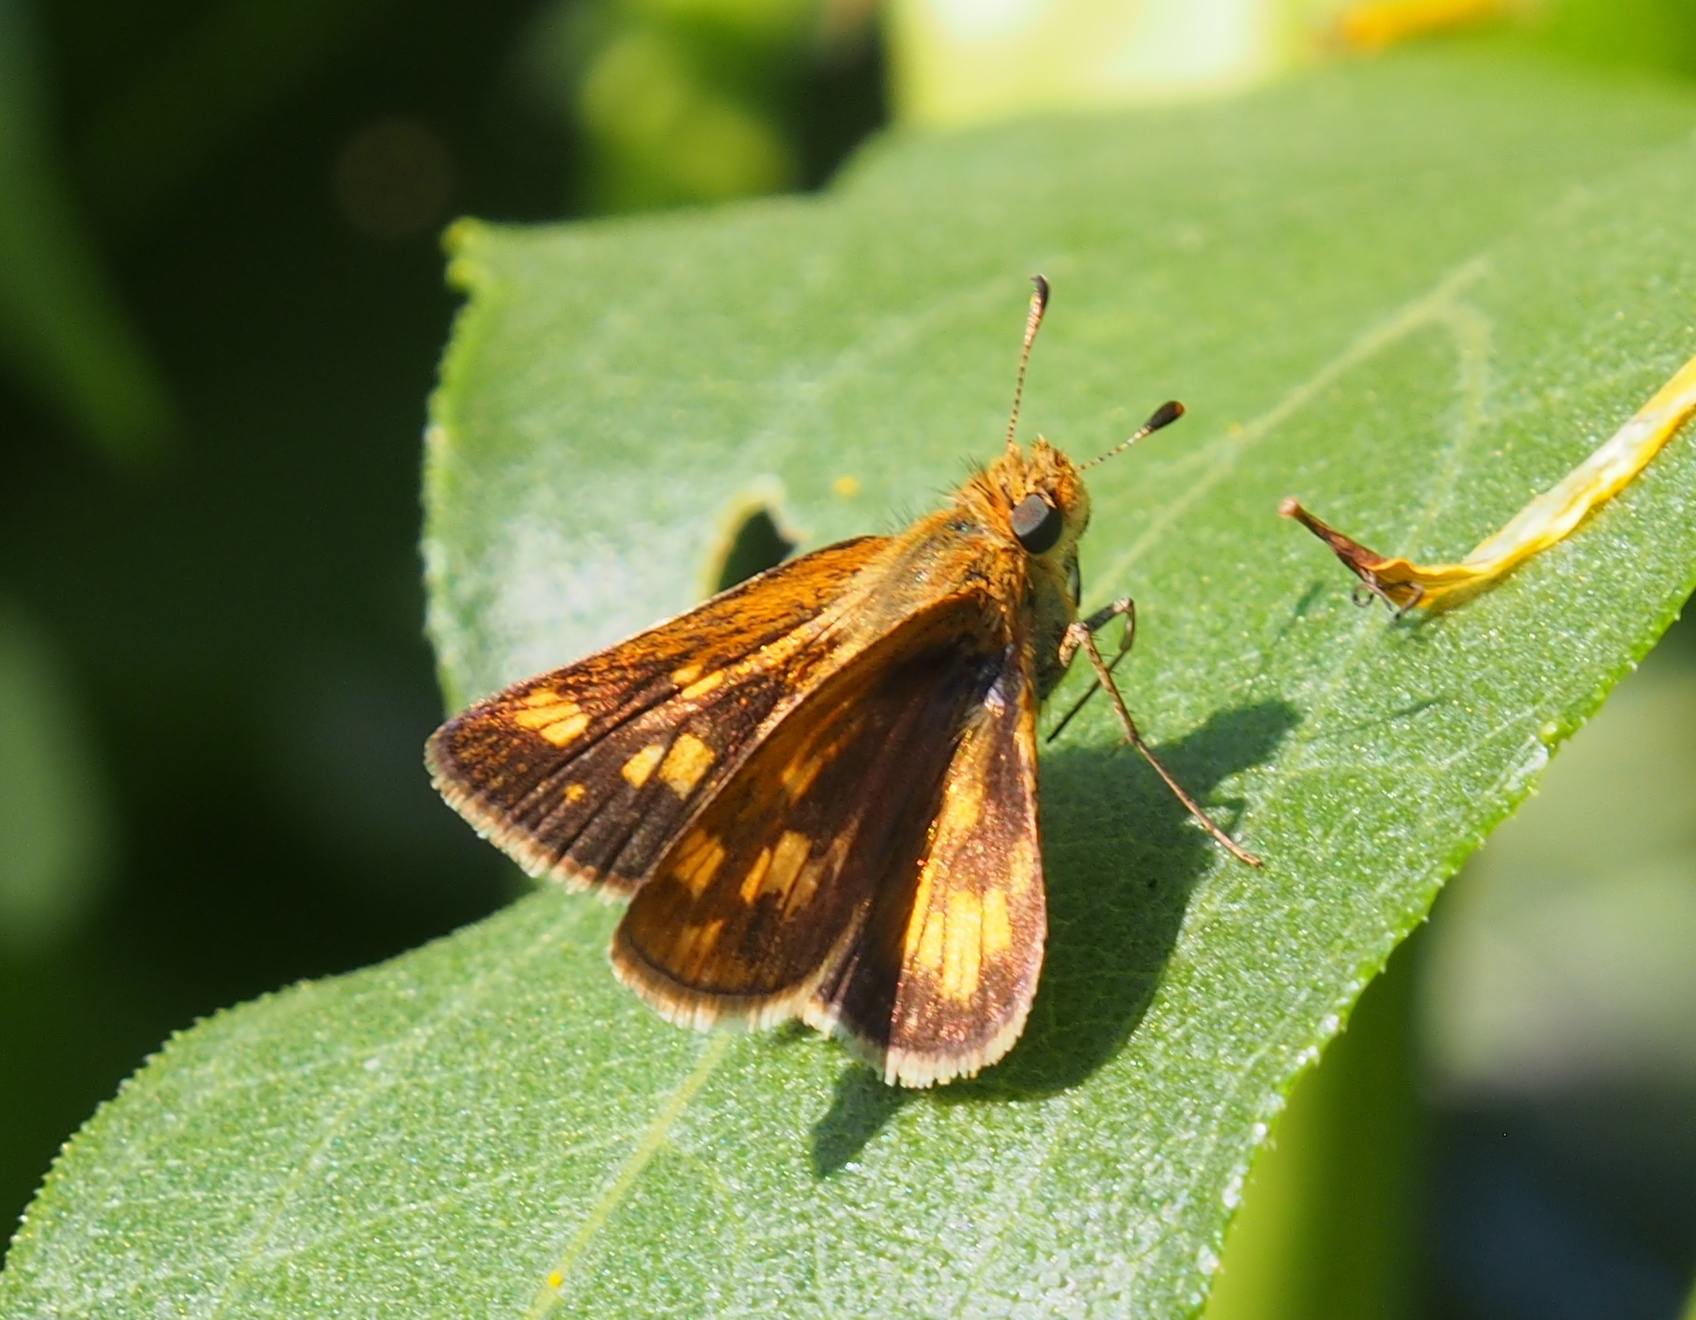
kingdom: Animalia
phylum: Arthropoda
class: Insecta
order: Lepidoptera
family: Hesperiidae
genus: Polites
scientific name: Polites coras
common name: Peck's skipper
